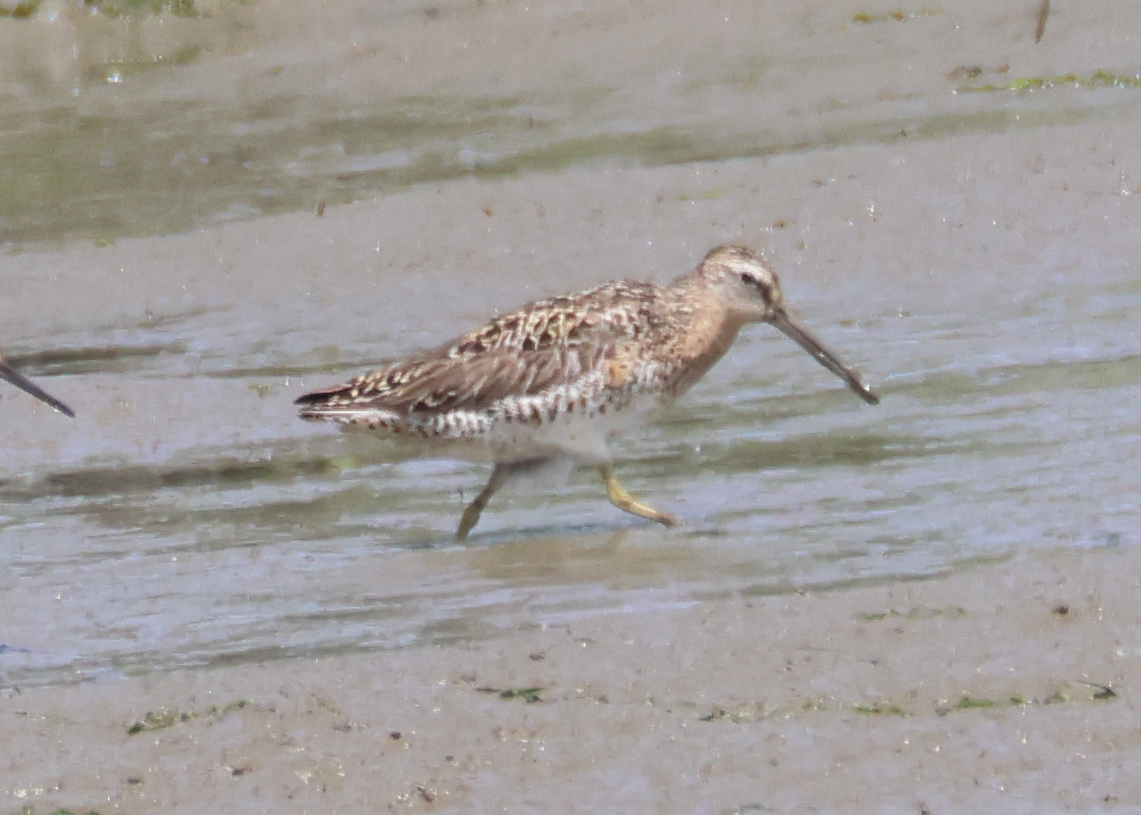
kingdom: Animalia
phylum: Chordata
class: Aves
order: Charadriiformes
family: Scolopacidae
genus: Limnodromus
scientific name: Limnodromus griseus
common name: Short-billed dowitcher
